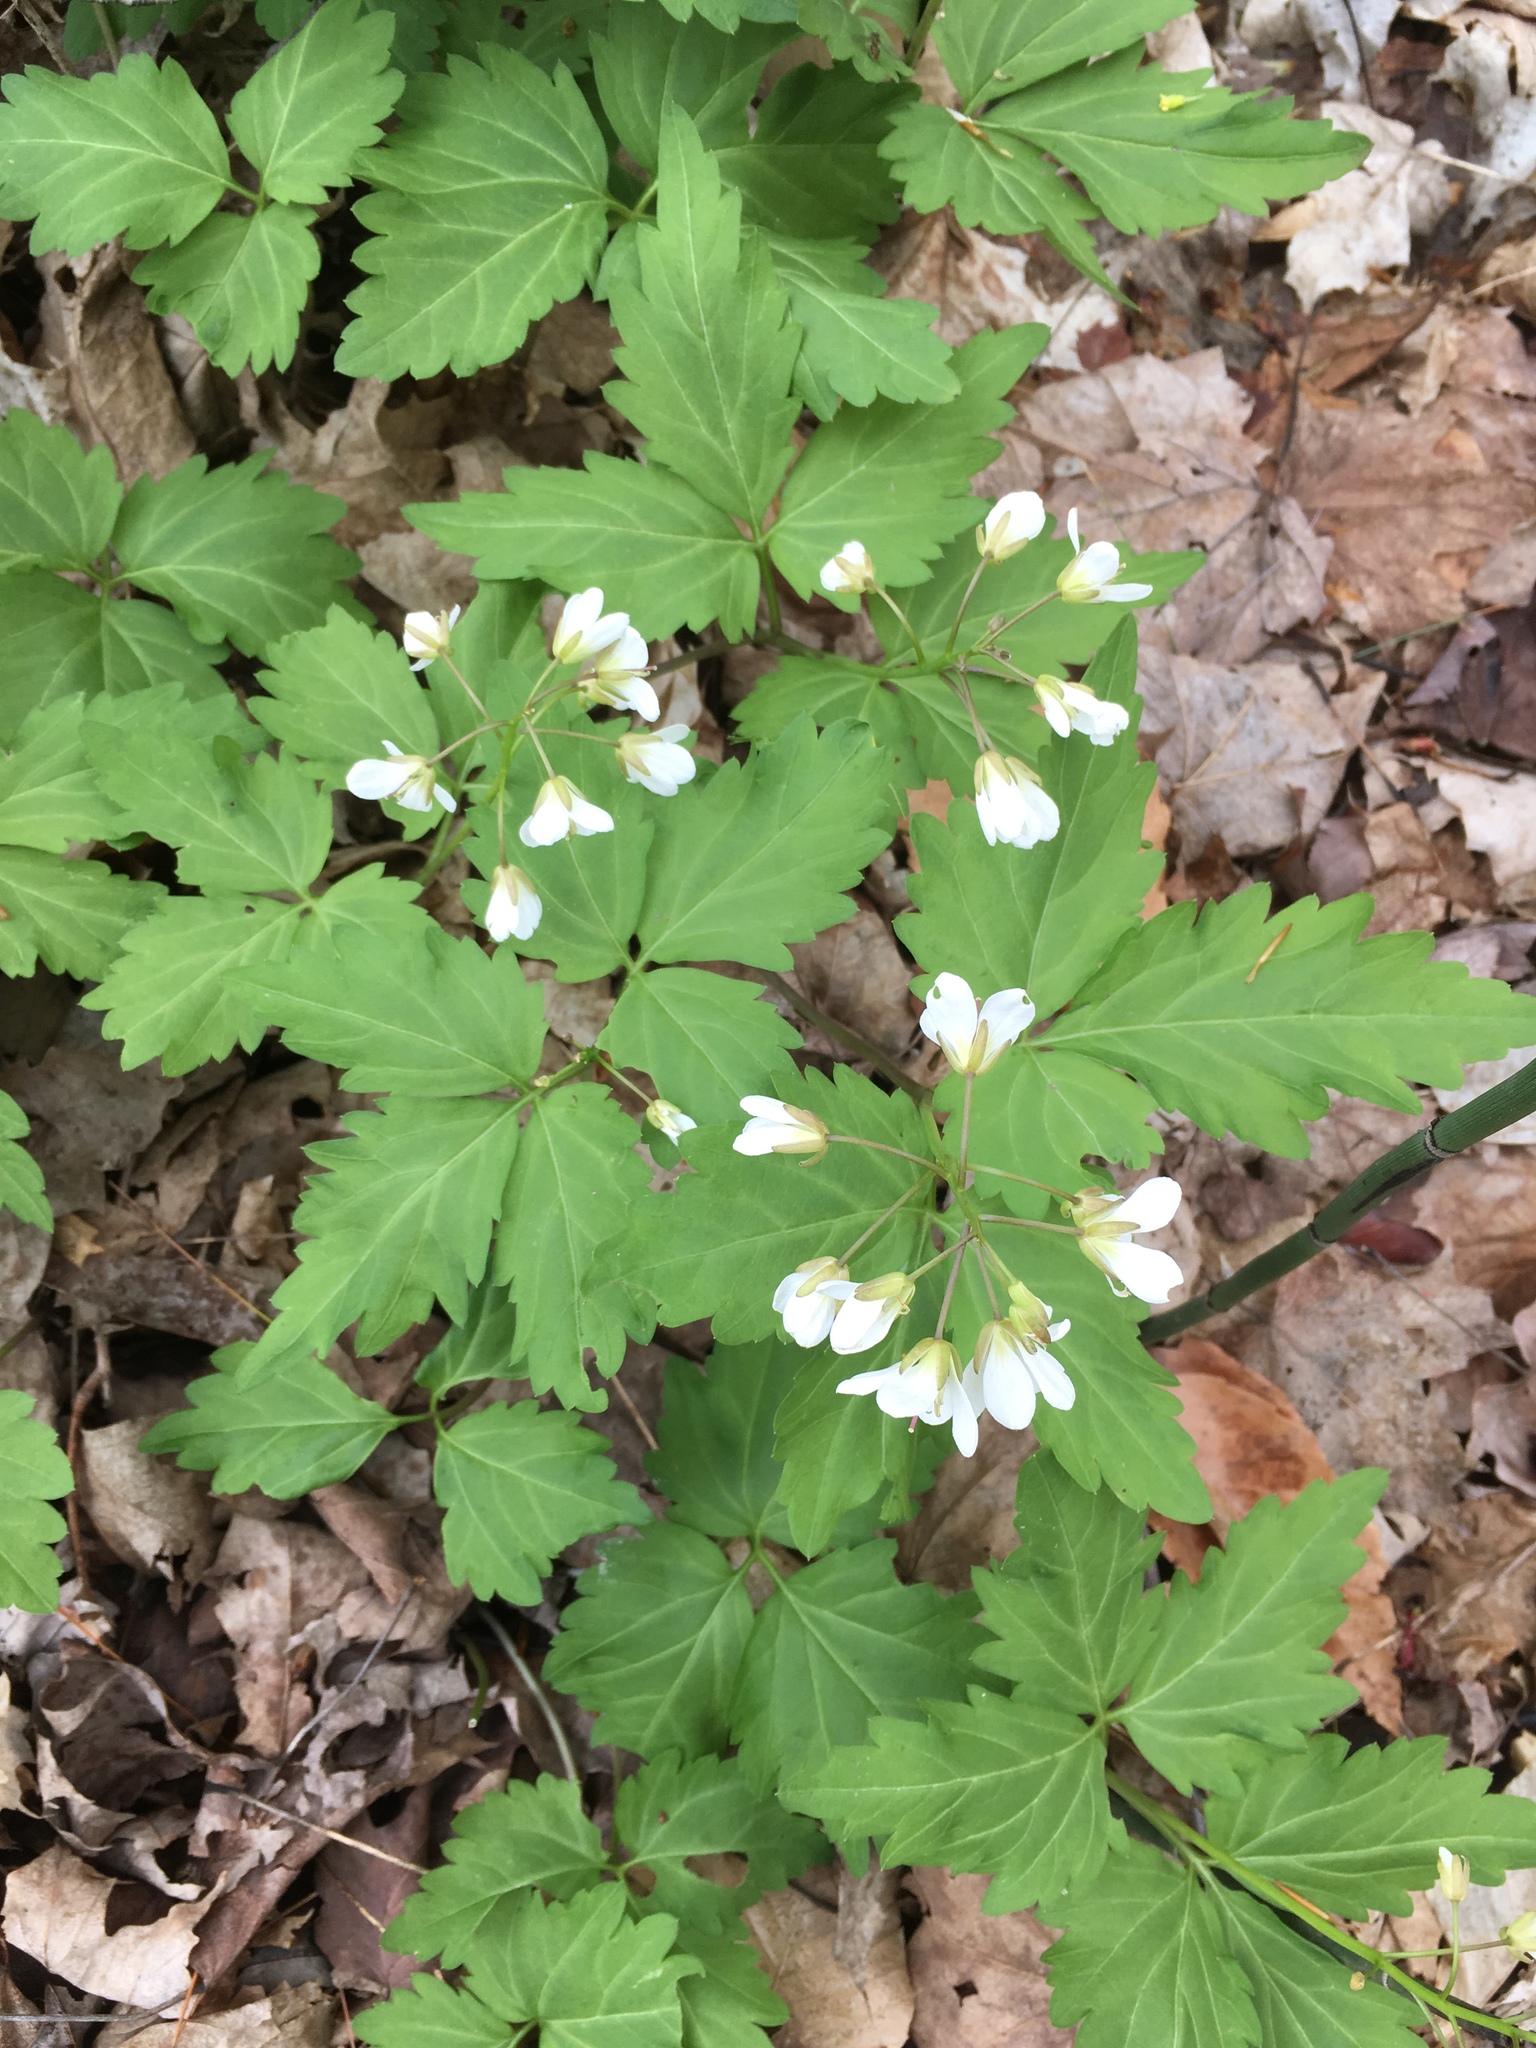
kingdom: Plantae
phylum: Tracheophyta
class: Magnoliopsida
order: Brassicales
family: Brassicaceae
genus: Cardamine
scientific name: Cardamine diphylla
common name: Broad-leaved toothwort
